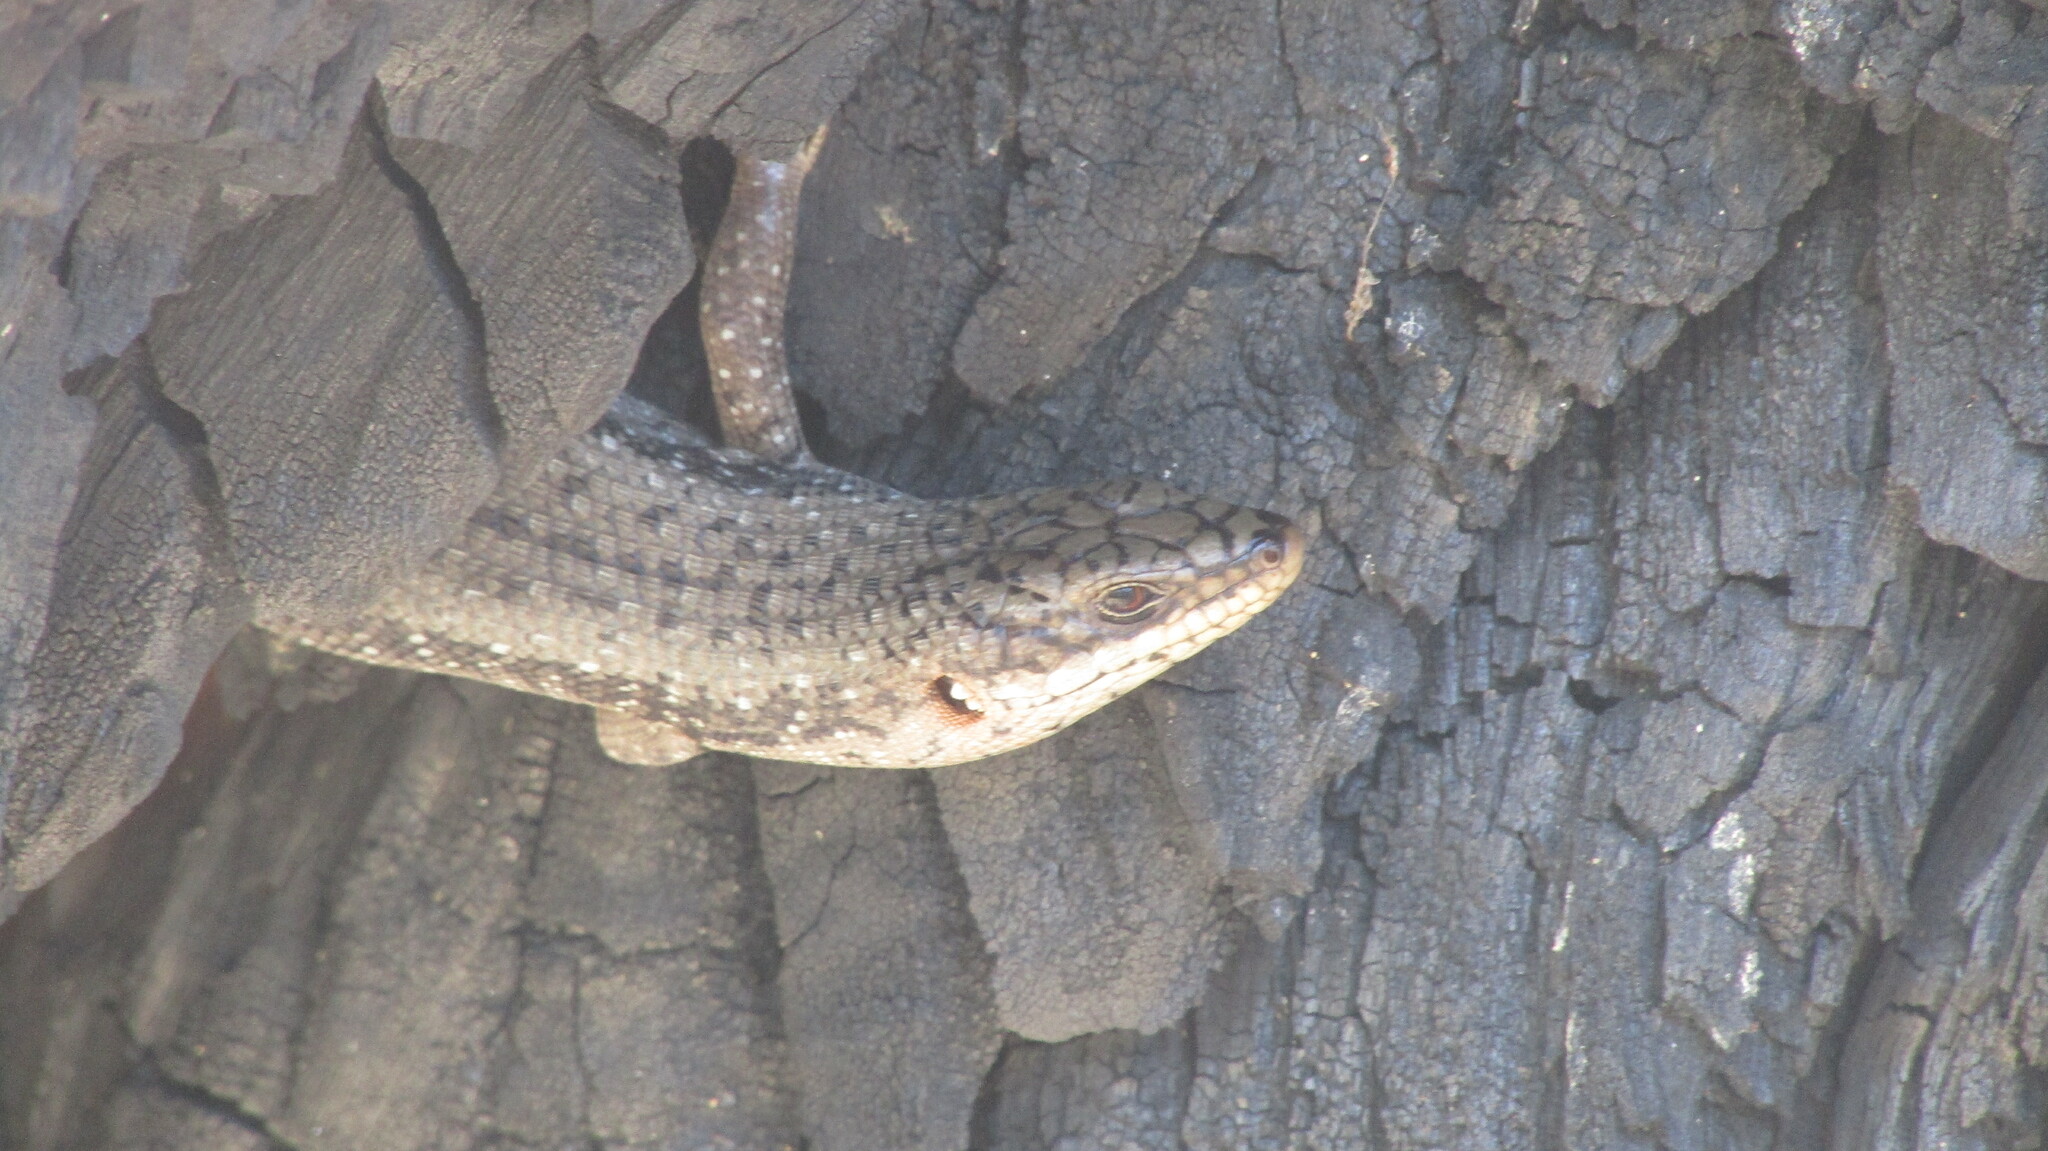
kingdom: Animalia
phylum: Chordata
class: Squamata
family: Scincidae
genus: Egernia
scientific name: Egernia napoleonis
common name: South-western crevice skink
